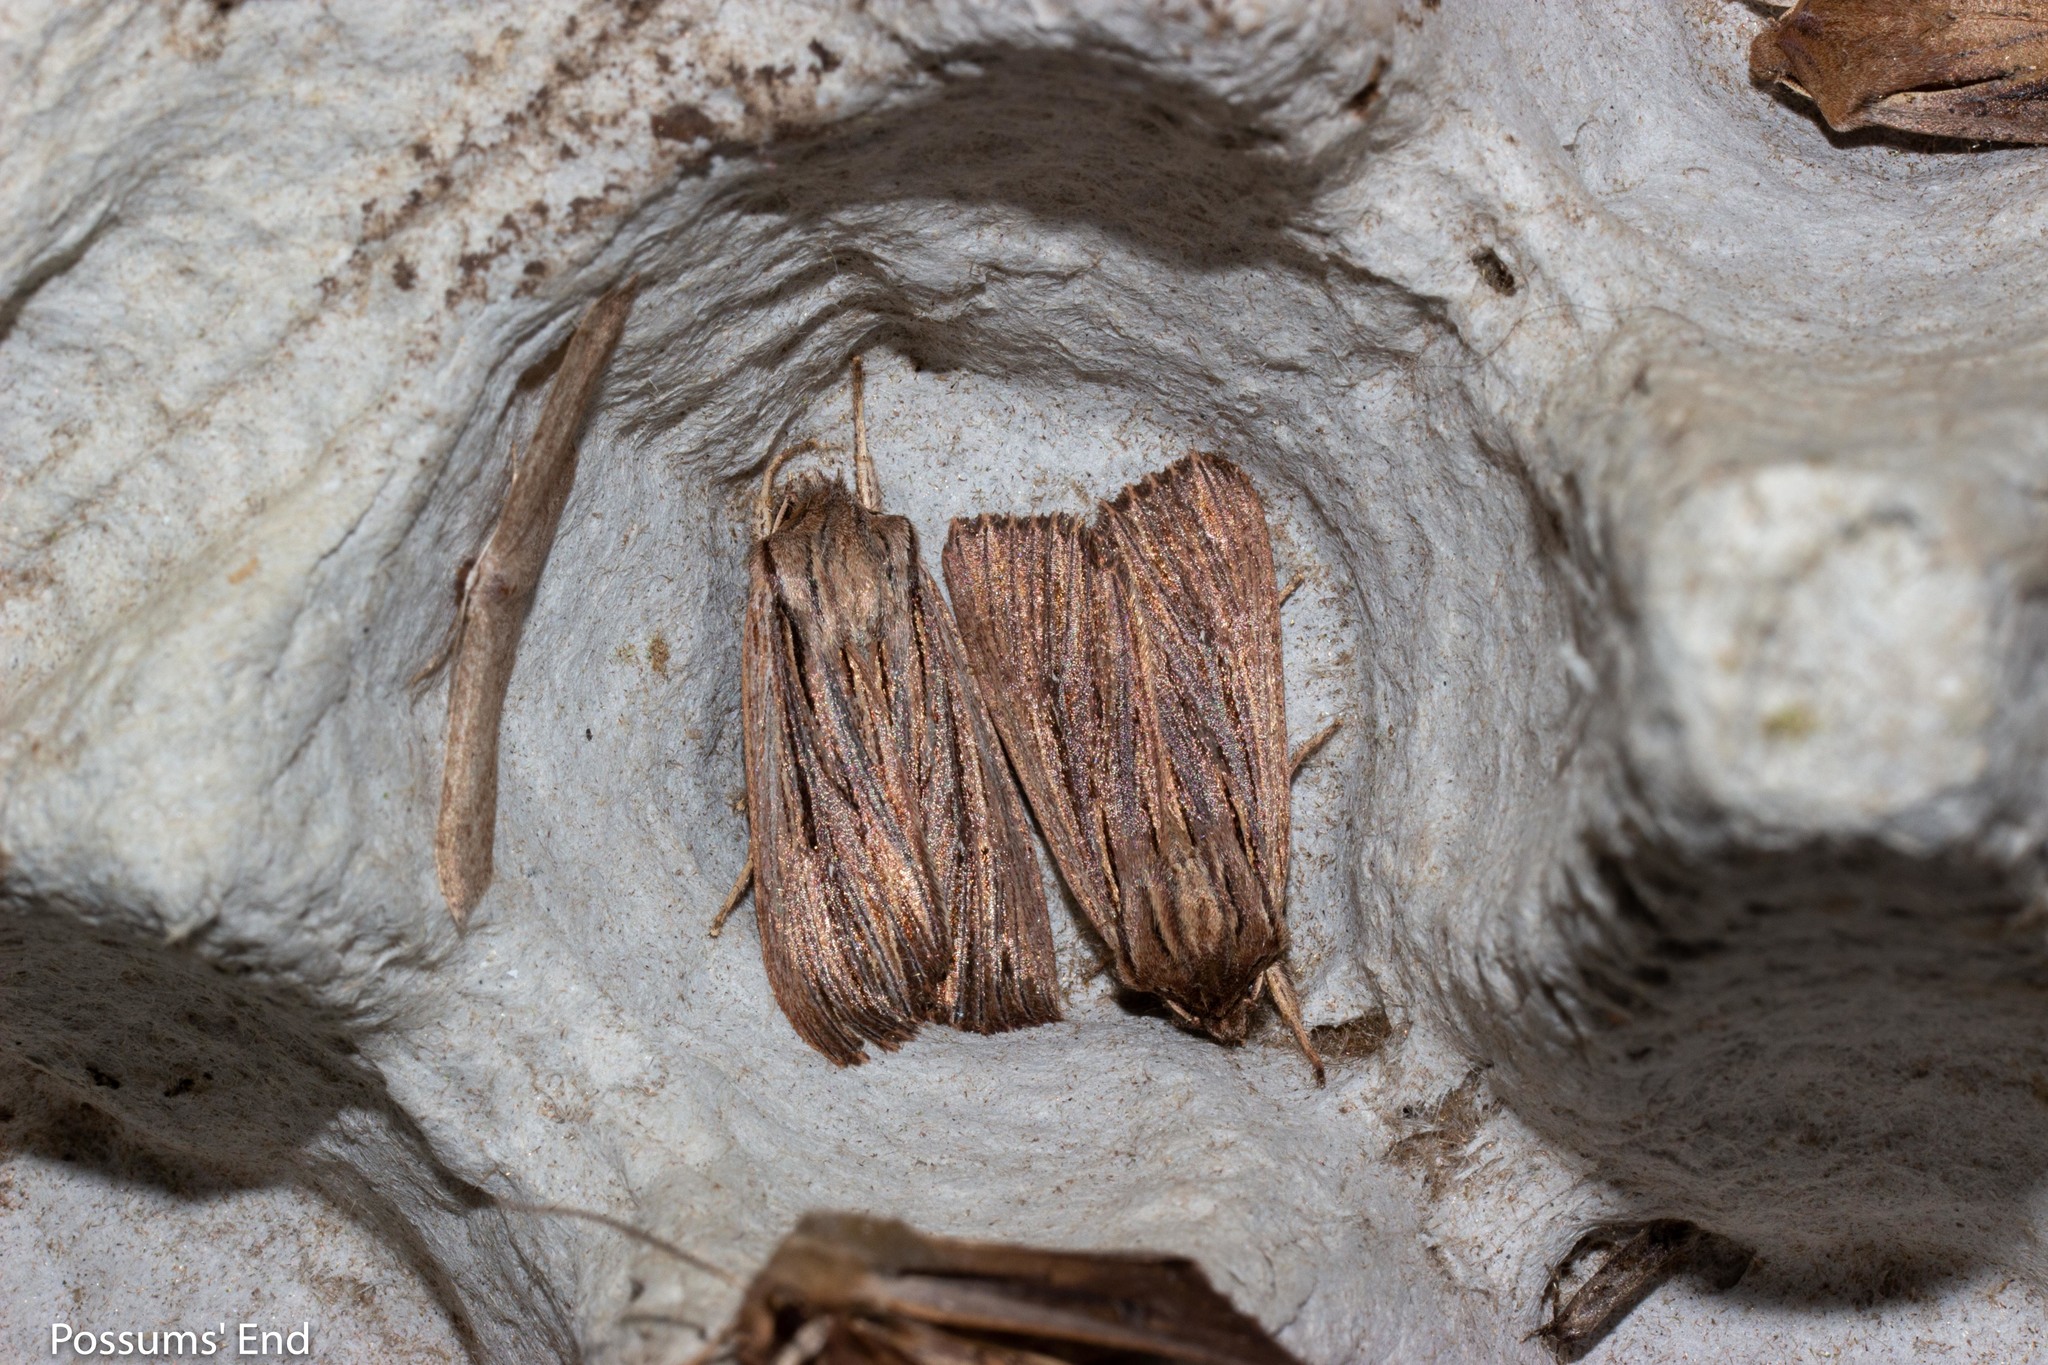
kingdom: Animalia
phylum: Arthropoda
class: Insecta
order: Lepidoptera
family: Noctuidae
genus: Ichneutica
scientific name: Ichneutica
